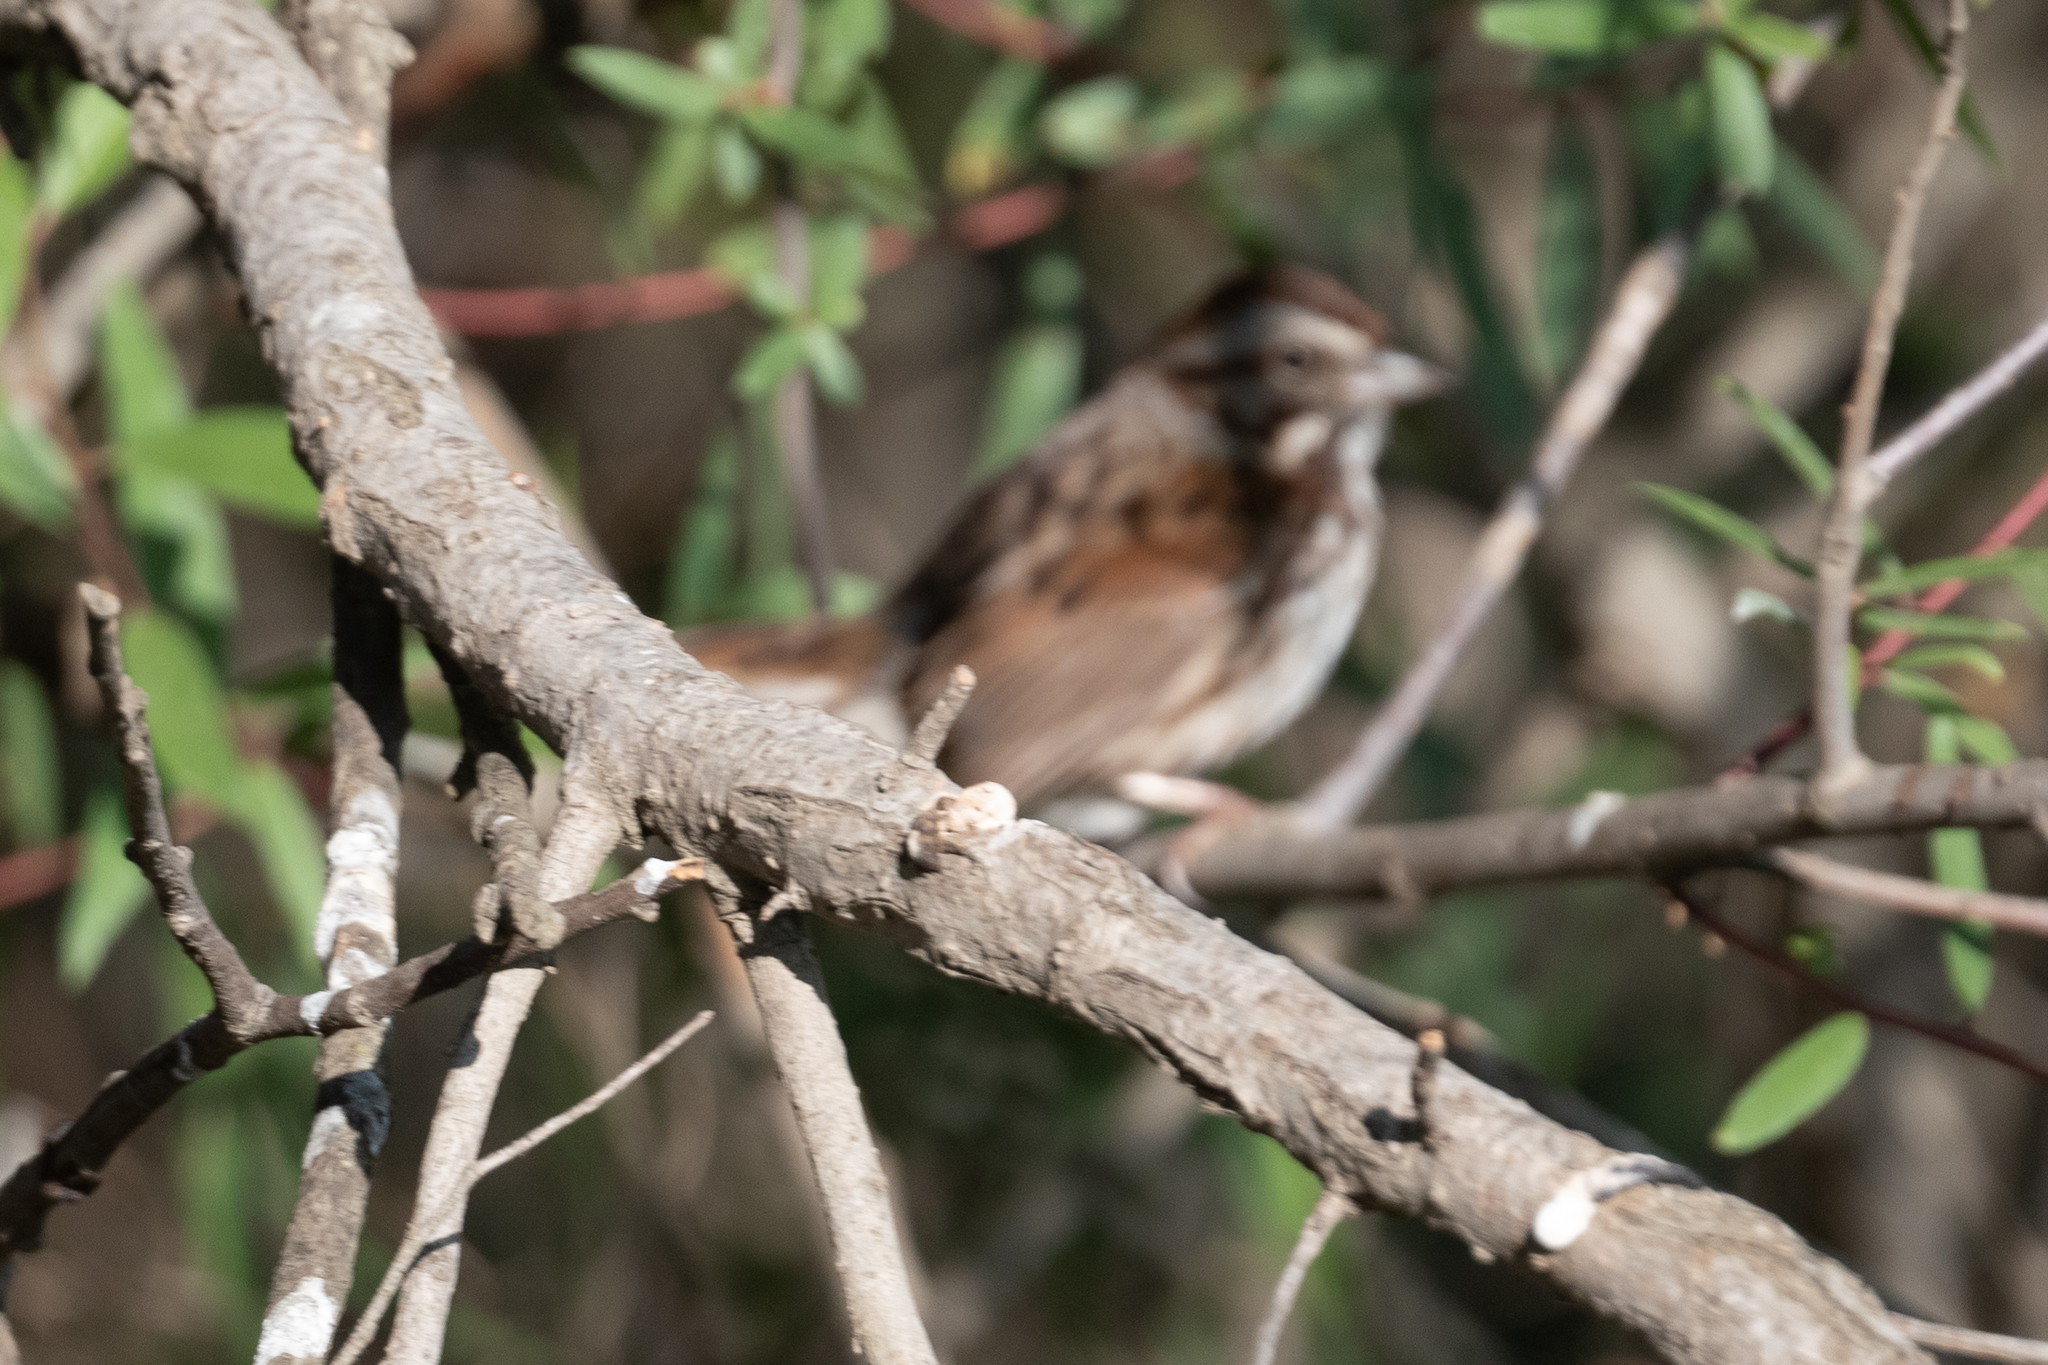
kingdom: Animalia
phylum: Chordata
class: Aves
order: Passeriformes
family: Passerellidae
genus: Melospiza
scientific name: Melospiza melodia
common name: Song sparrow
